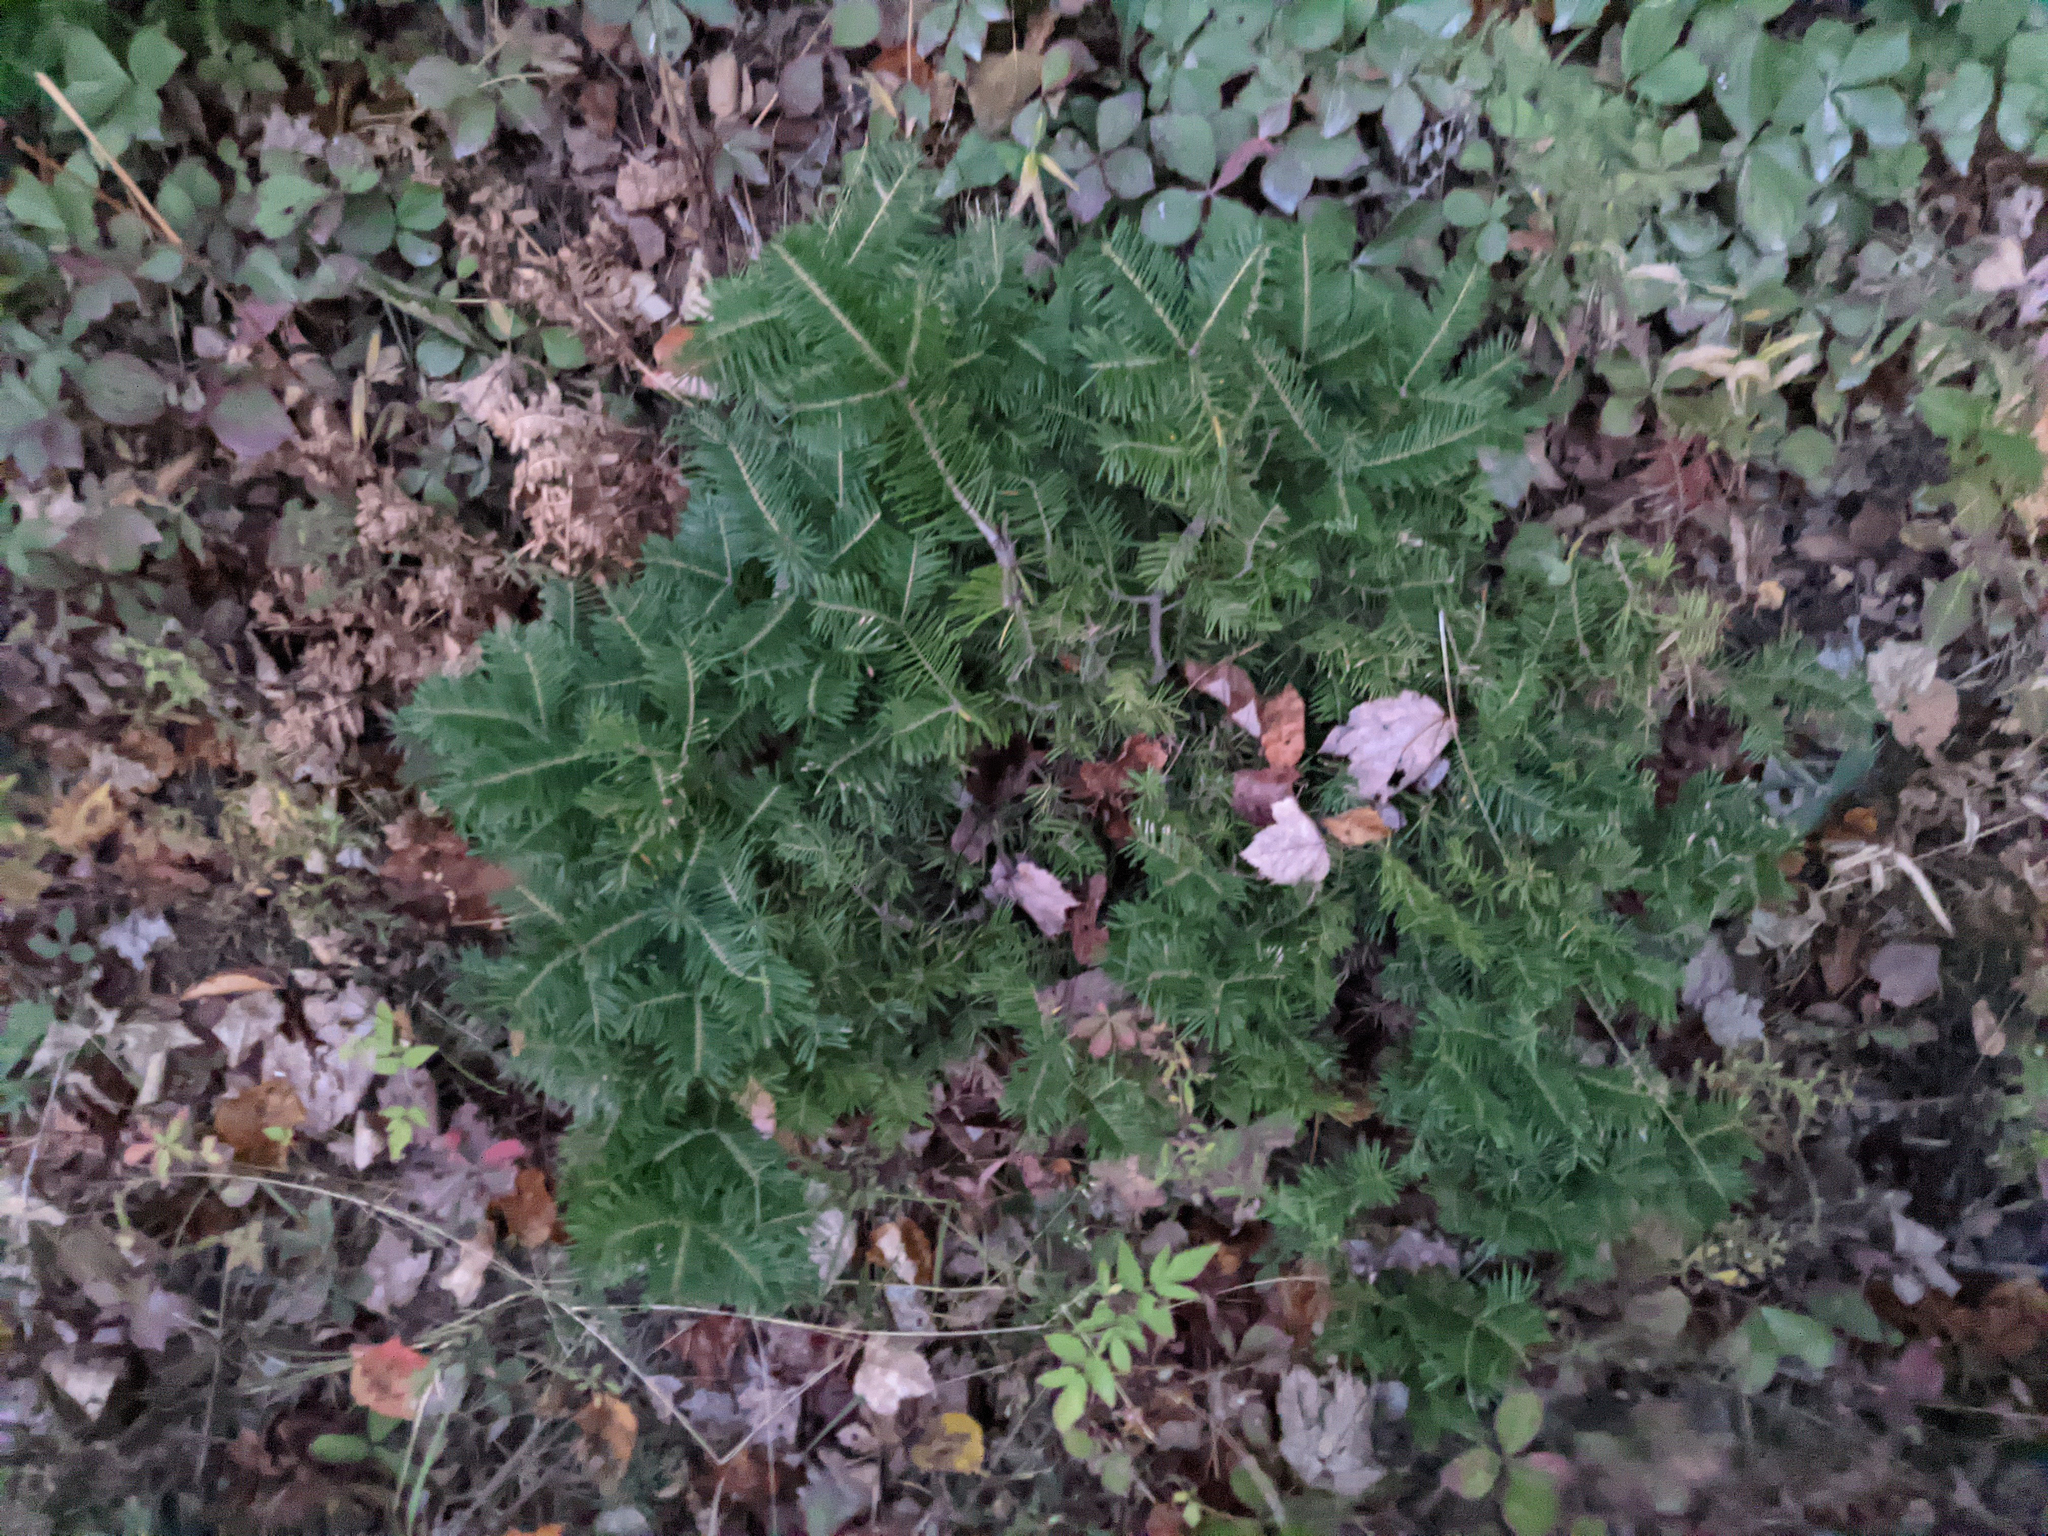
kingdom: Plantae
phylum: Tracheophyta
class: Pinopsida
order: Pinales
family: Pinaceae
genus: Abies
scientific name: Abies balsamea
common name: Balsam fir
